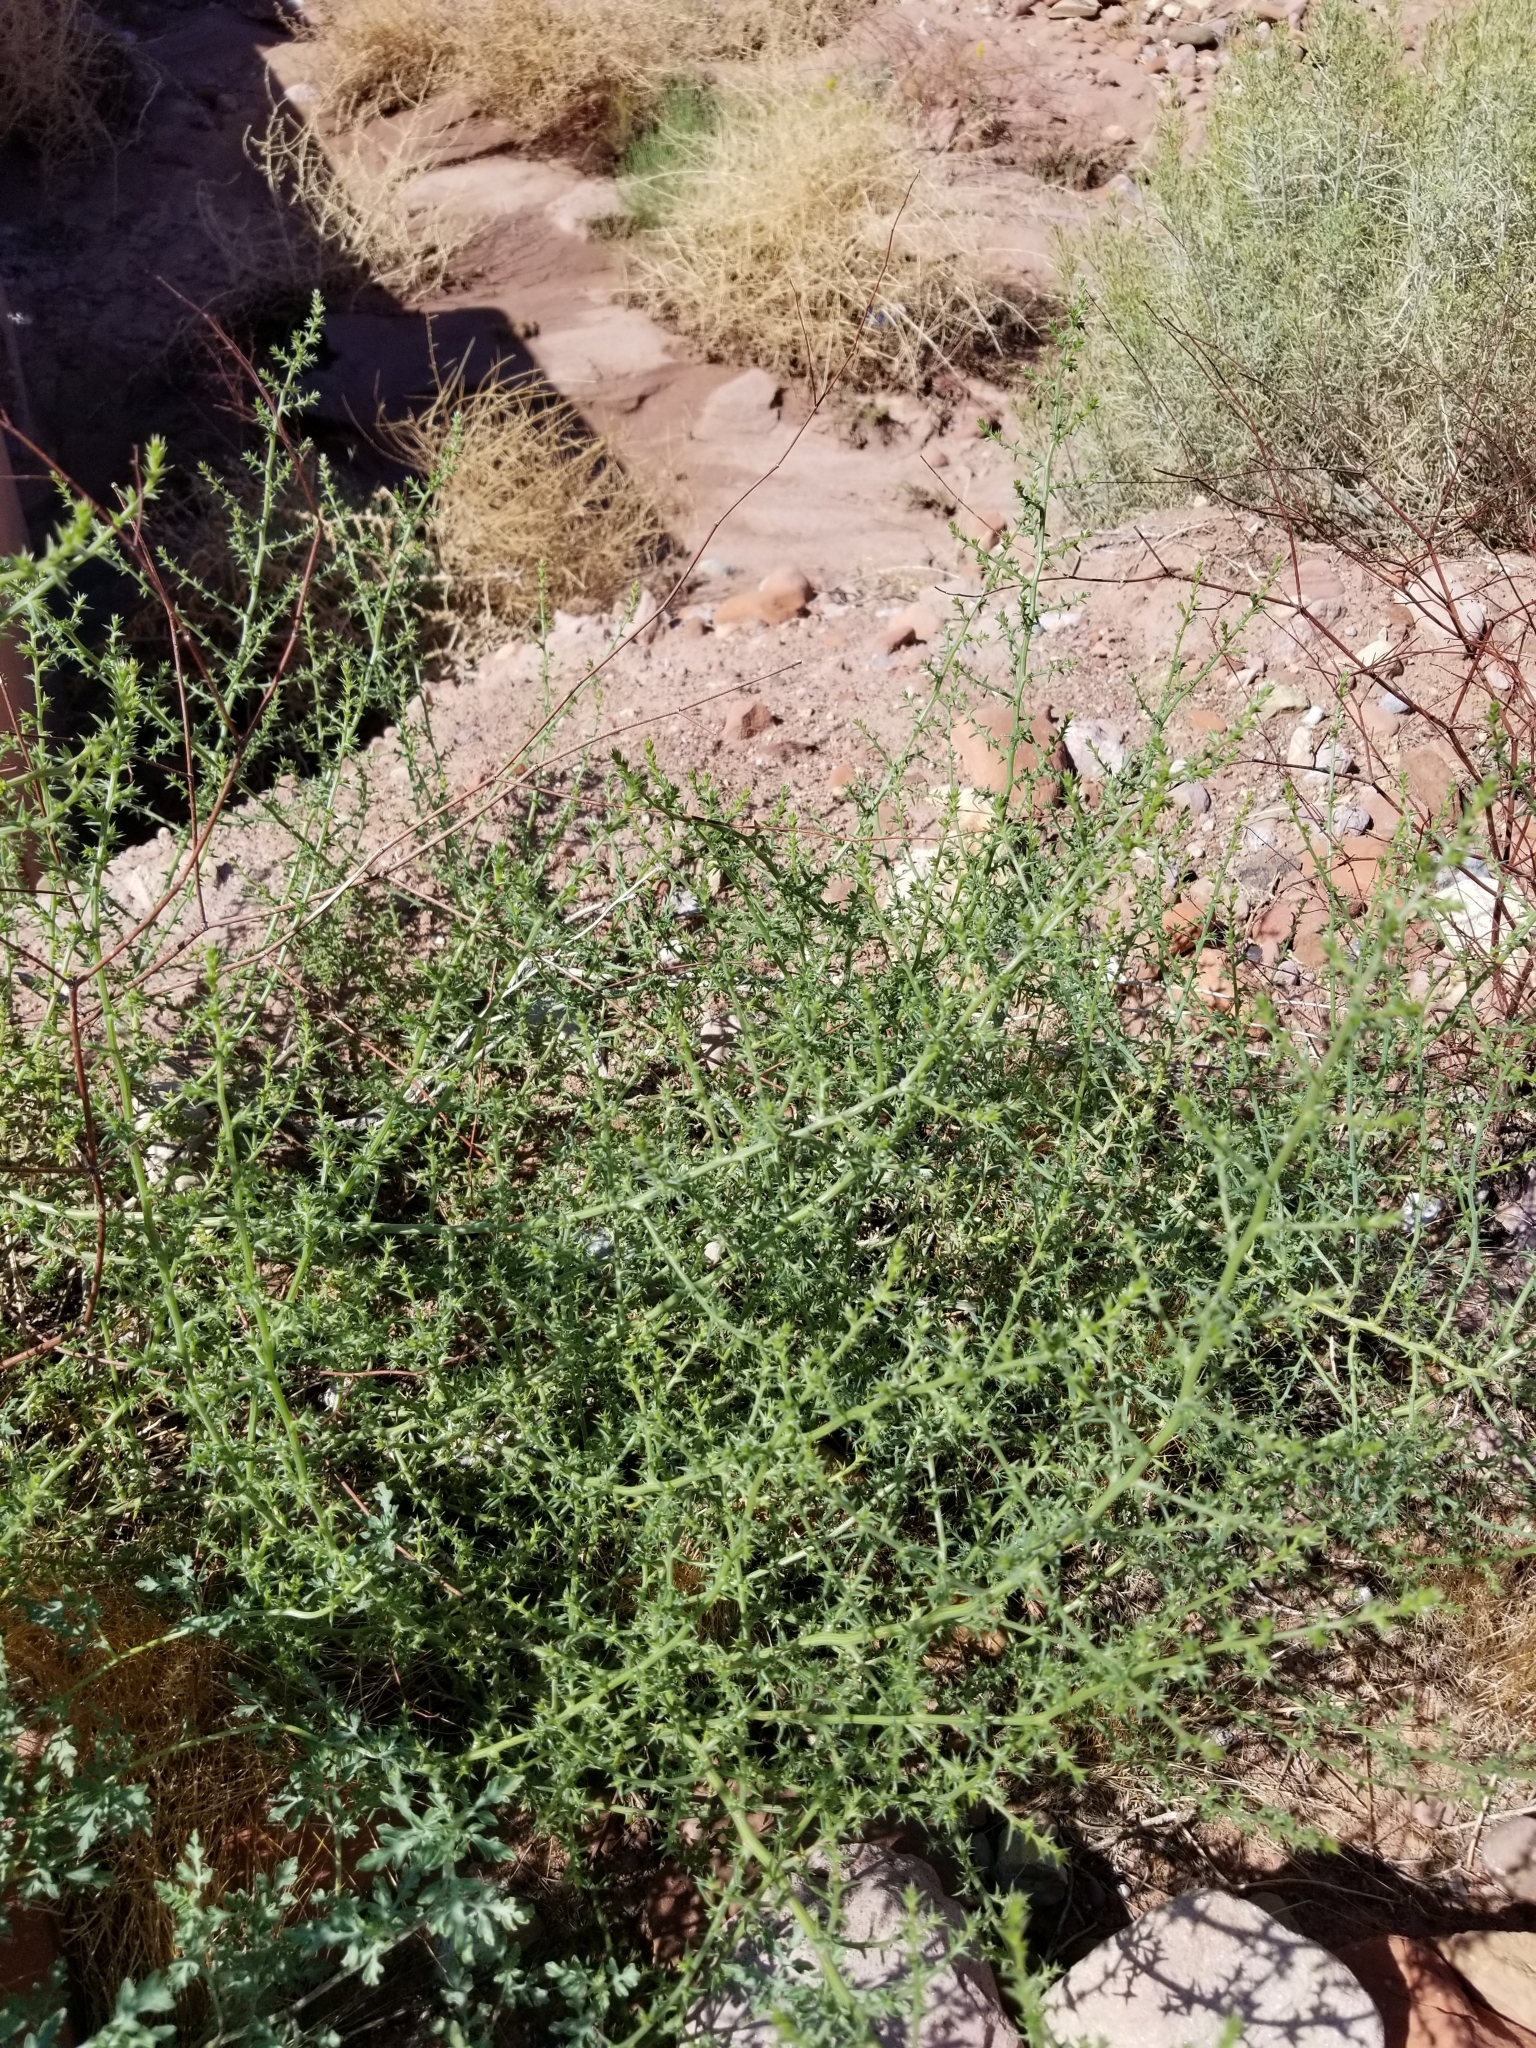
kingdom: Plantae
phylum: Tracheophyta
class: Magnoliopsida
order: Caryophyllales
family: Amaranthaceae
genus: Salsola
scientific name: Salsola tragus
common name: Prickly russian thistle
